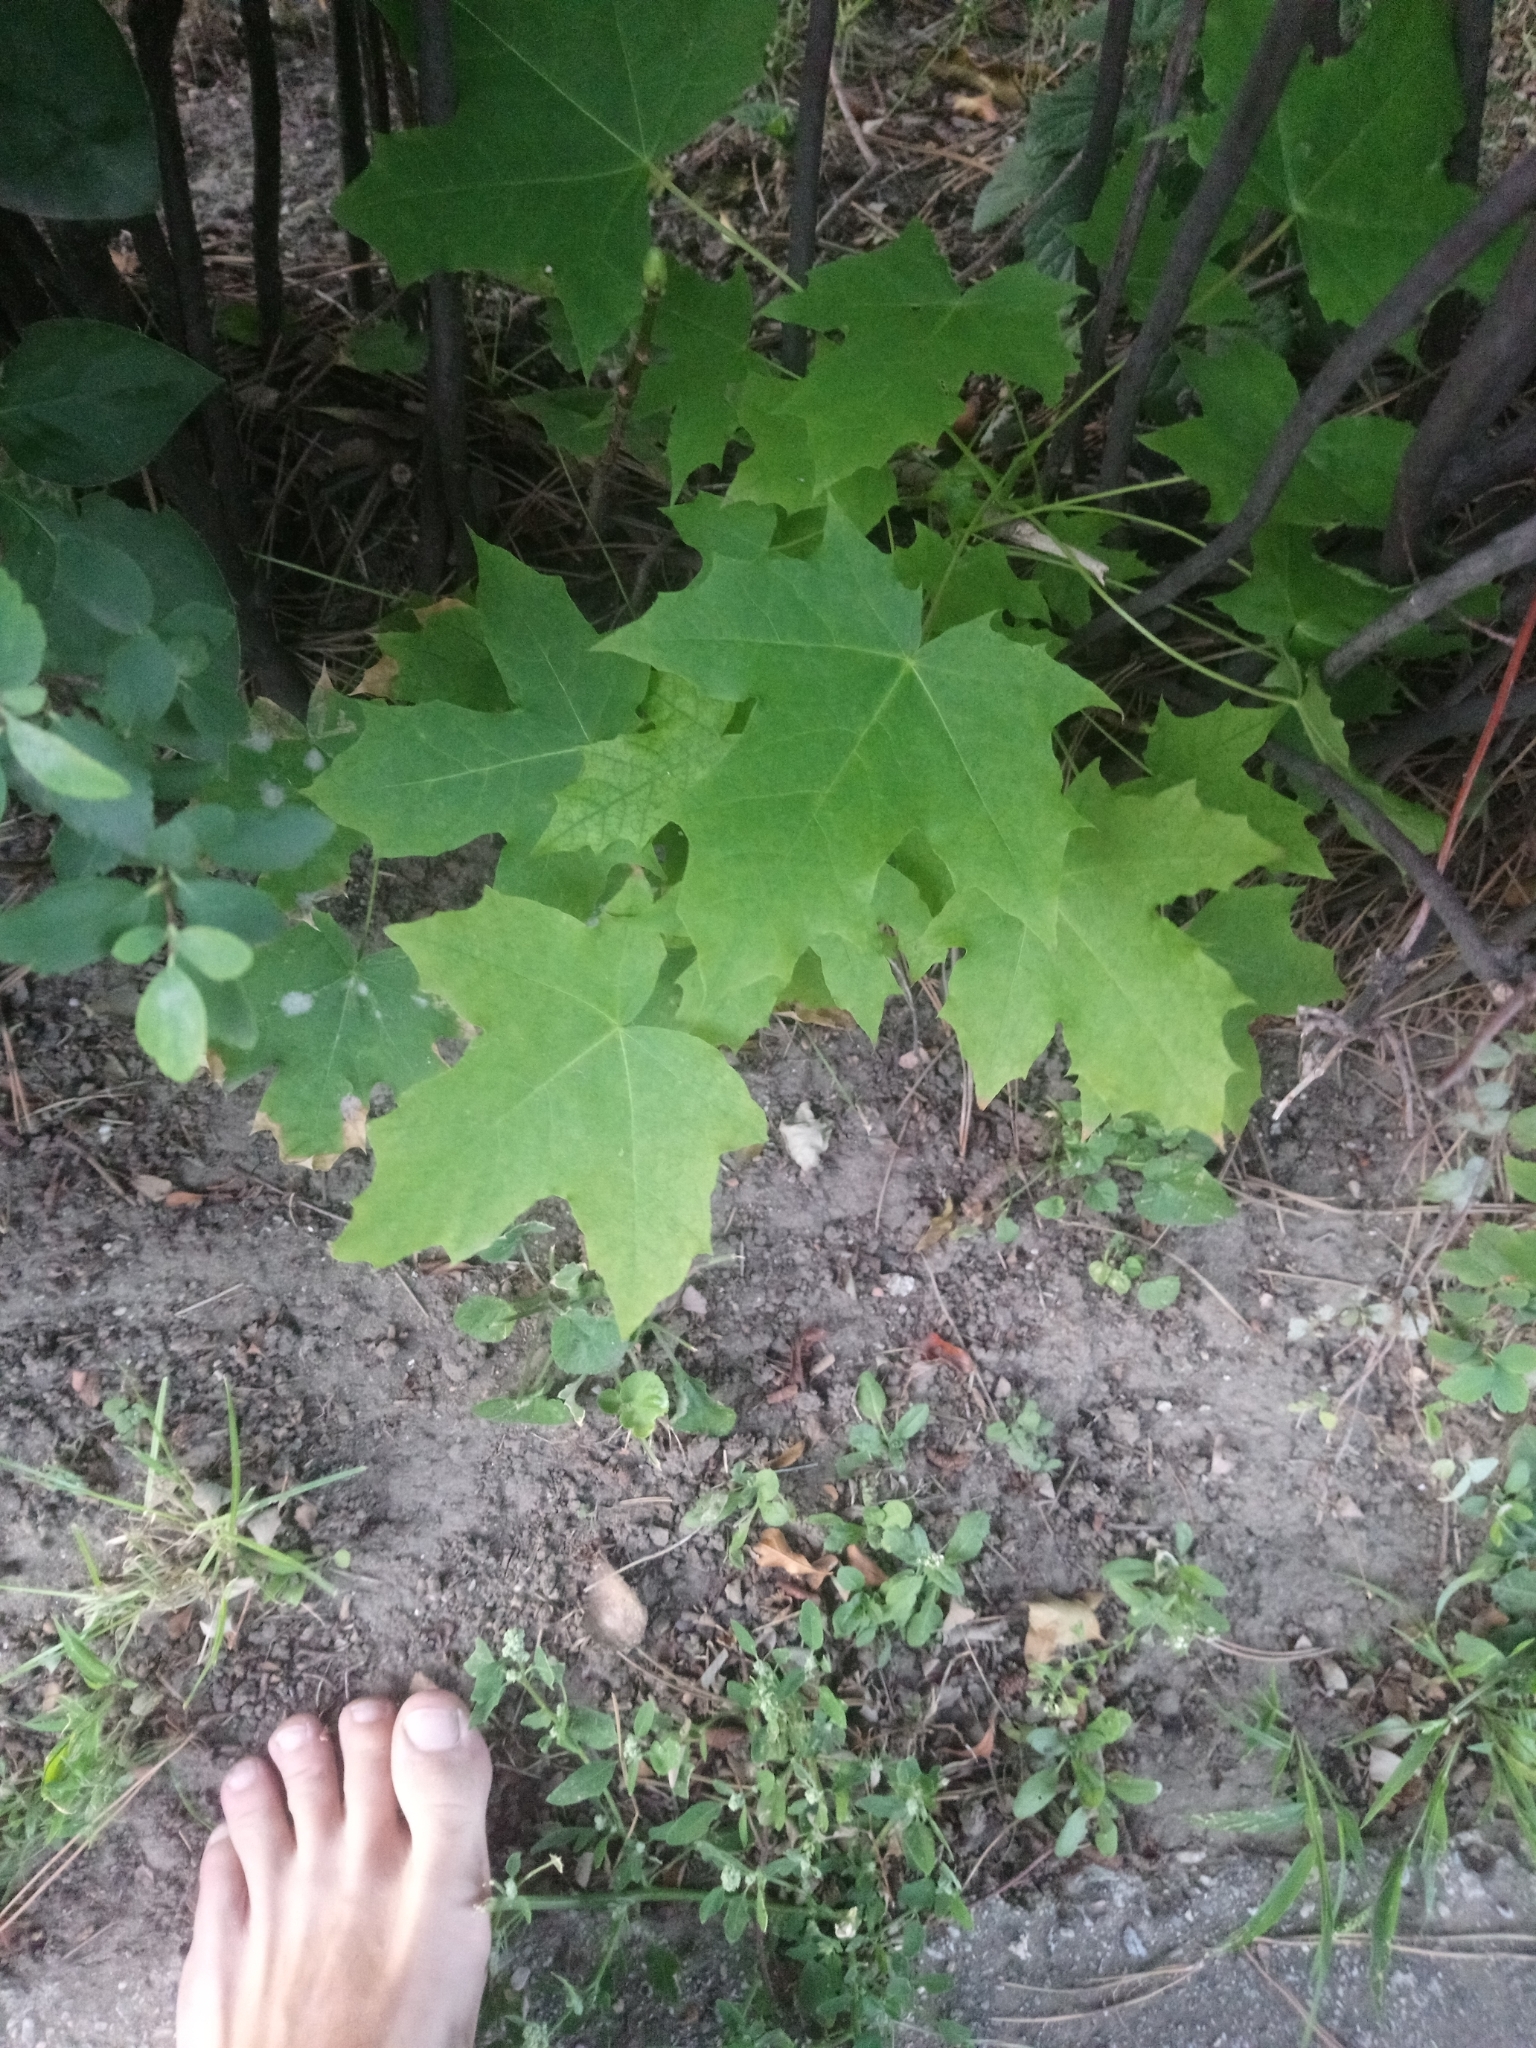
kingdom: Plantae
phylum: Tracheophyta
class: Magnoliopsida
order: Sapindales
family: Sapindaceae
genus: Acer
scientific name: Acer platanoides
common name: Norway maple
